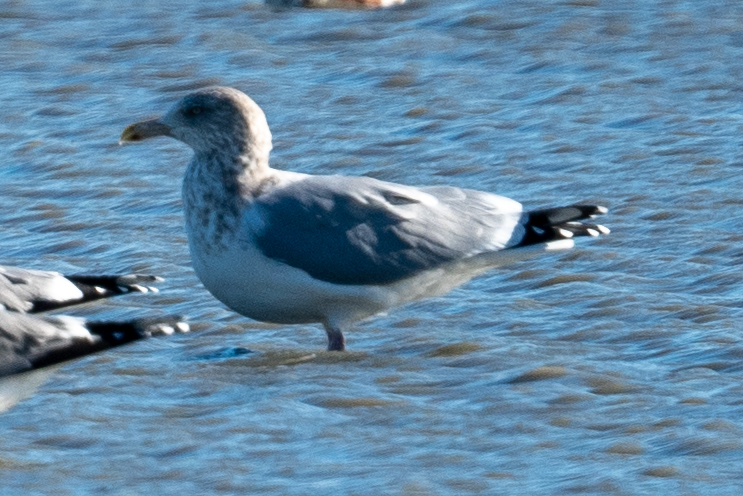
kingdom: Animalia
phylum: Chordata
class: Aves
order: Charadriiformes
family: Laridae
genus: Larus
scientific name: Larus argentatus
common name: Herring gull
